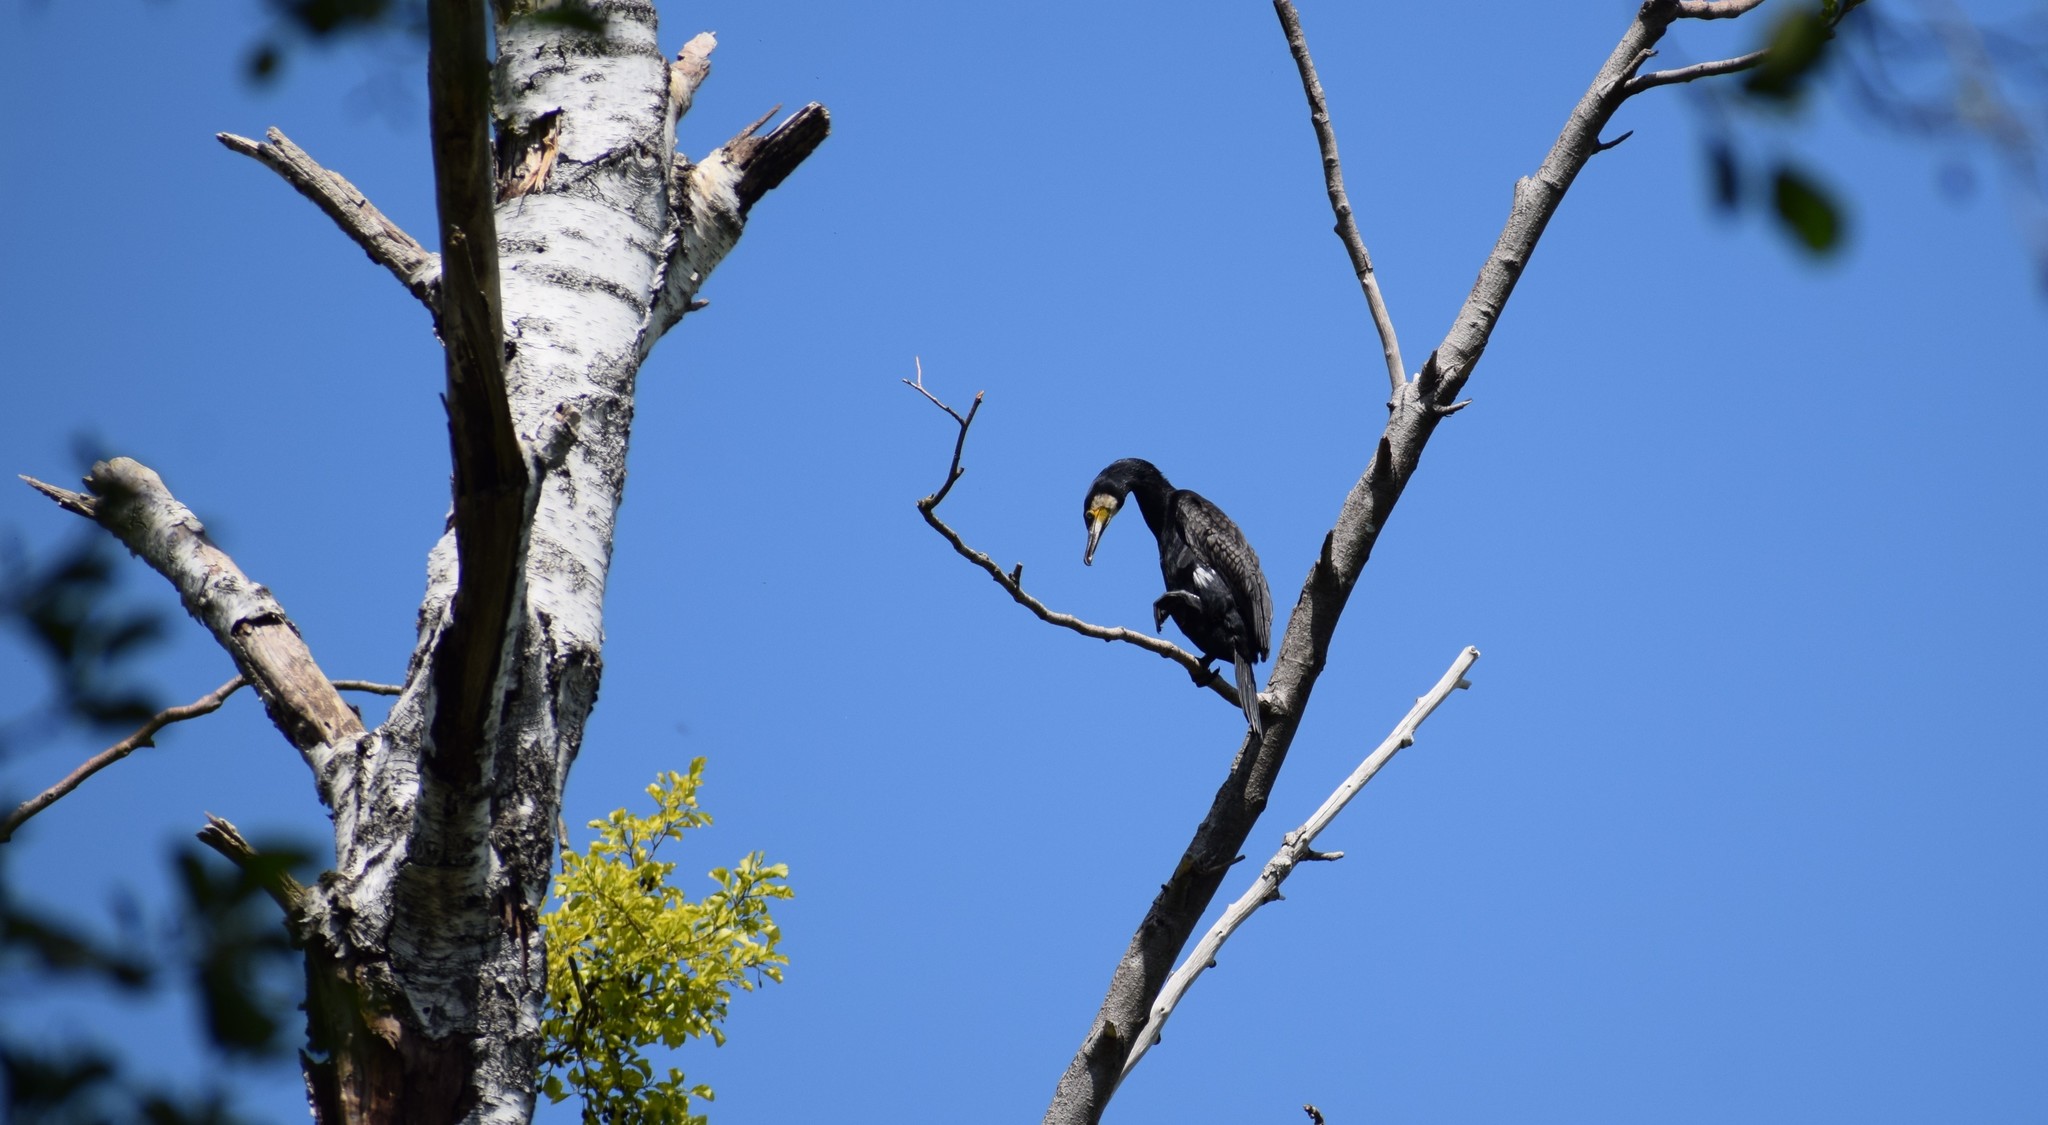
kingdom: Animalia
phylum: Chordata
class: Aves
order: Suliformes
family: Phalacrocoracidae
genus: Phalacrocorax
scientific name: Phalacrocorax carbo
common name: Great cormorant
